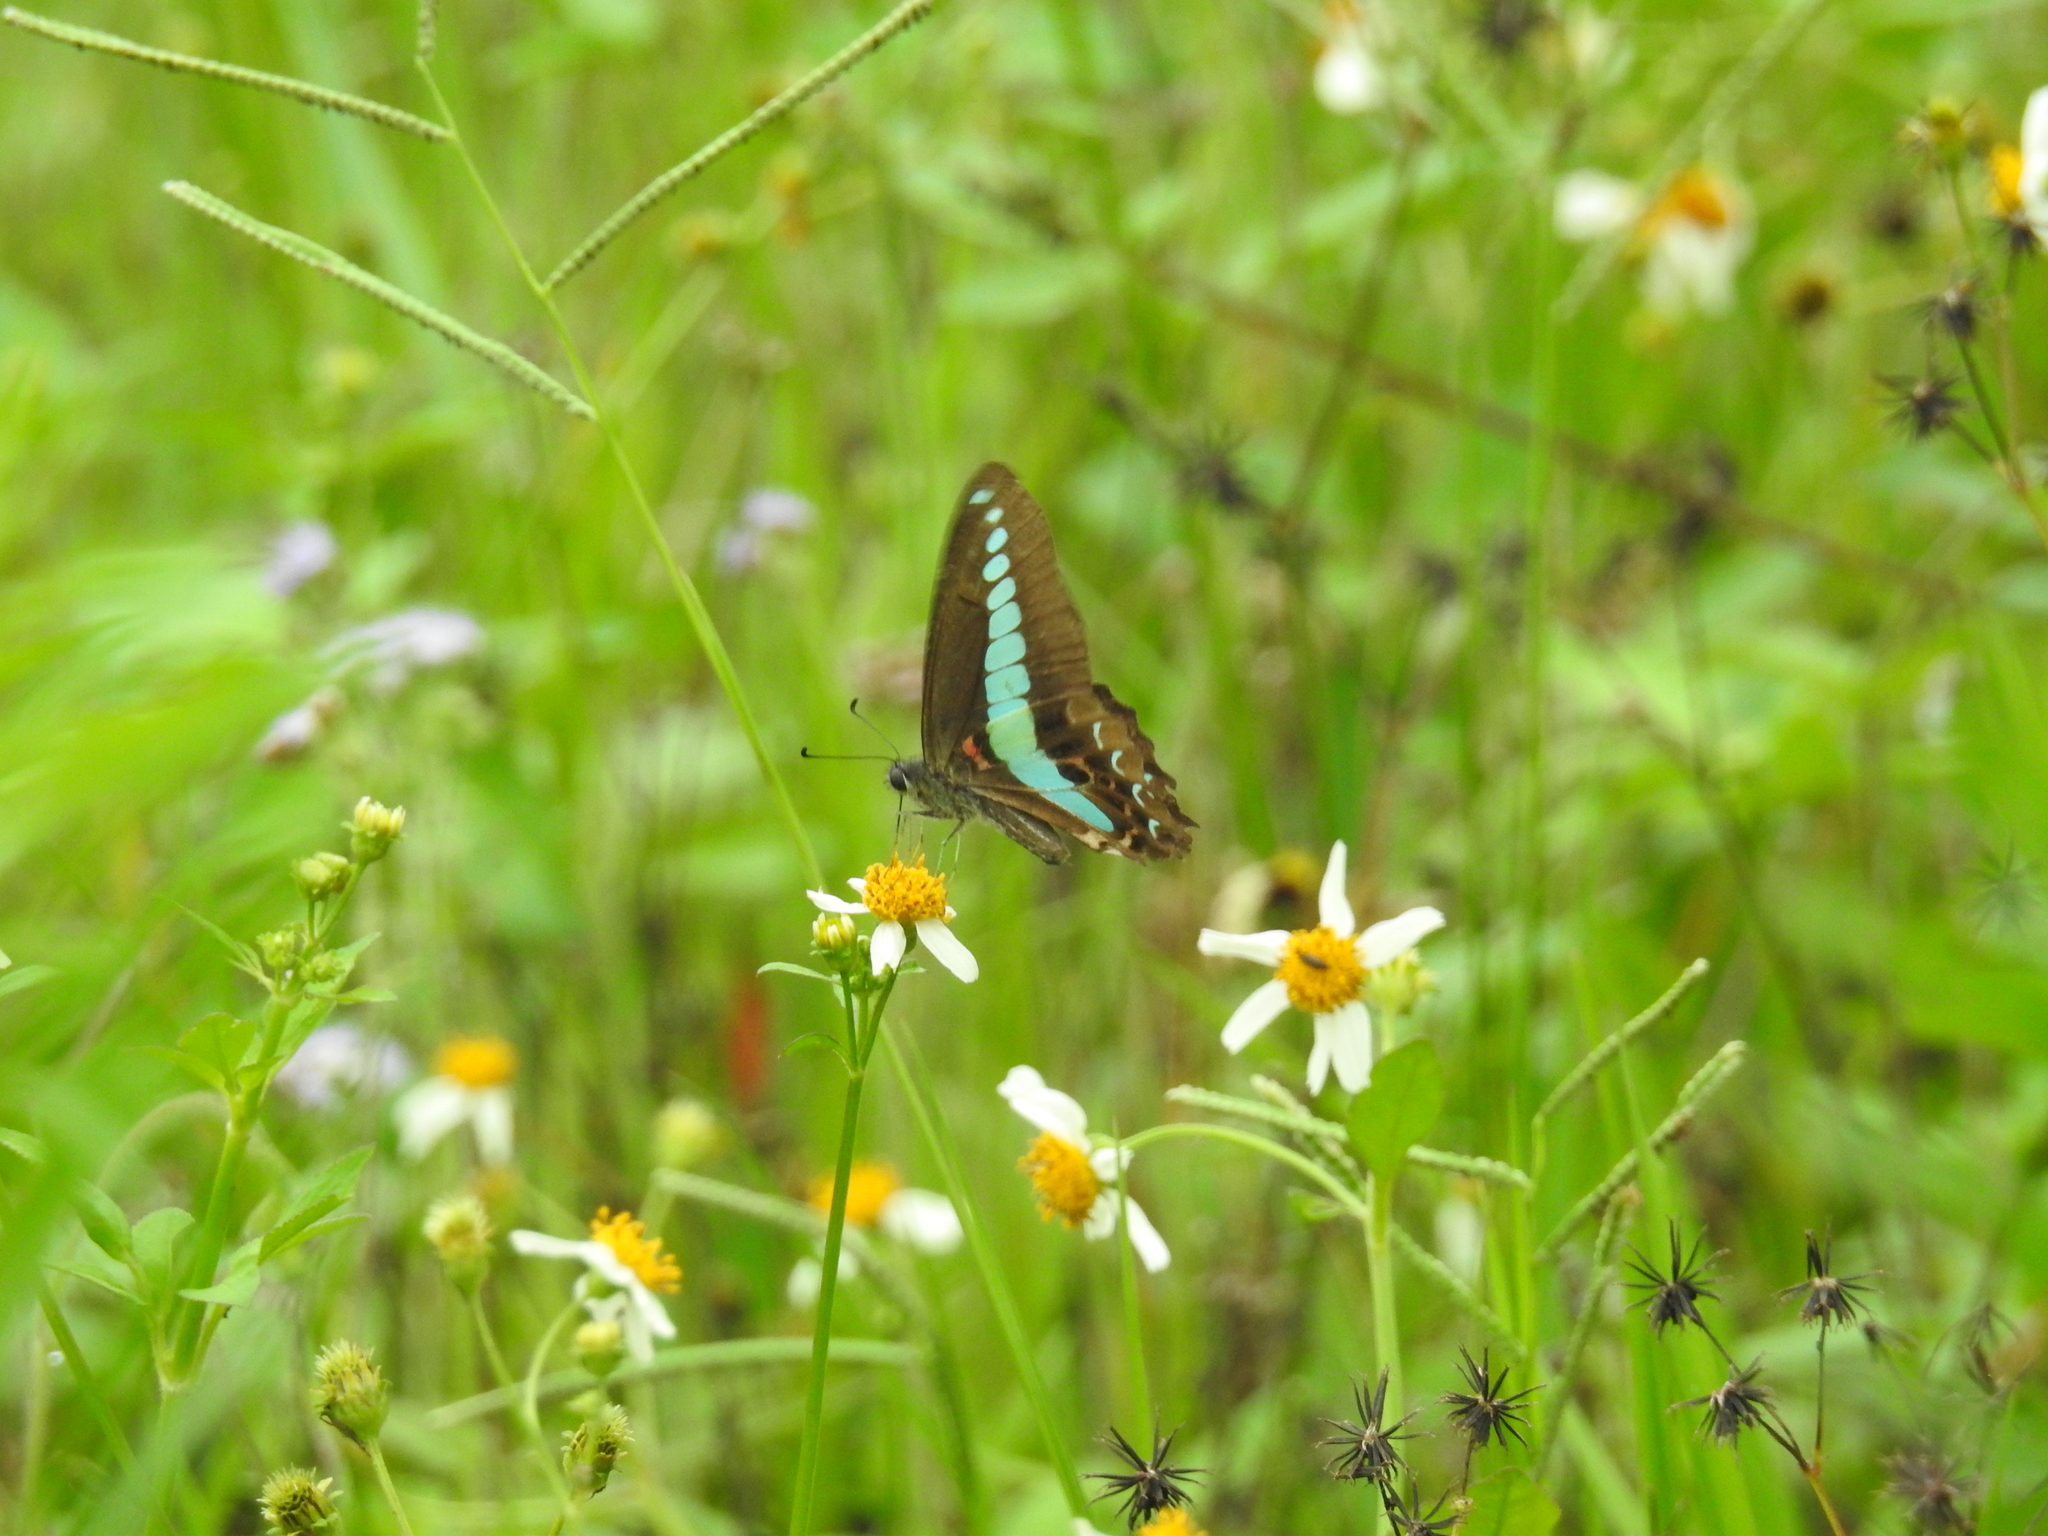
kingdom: Fungi
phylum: Ascomycota
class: Sordariomycetes
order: Microascales
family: Microascaceae
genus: Graphium
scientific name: Graphium sarpedon
